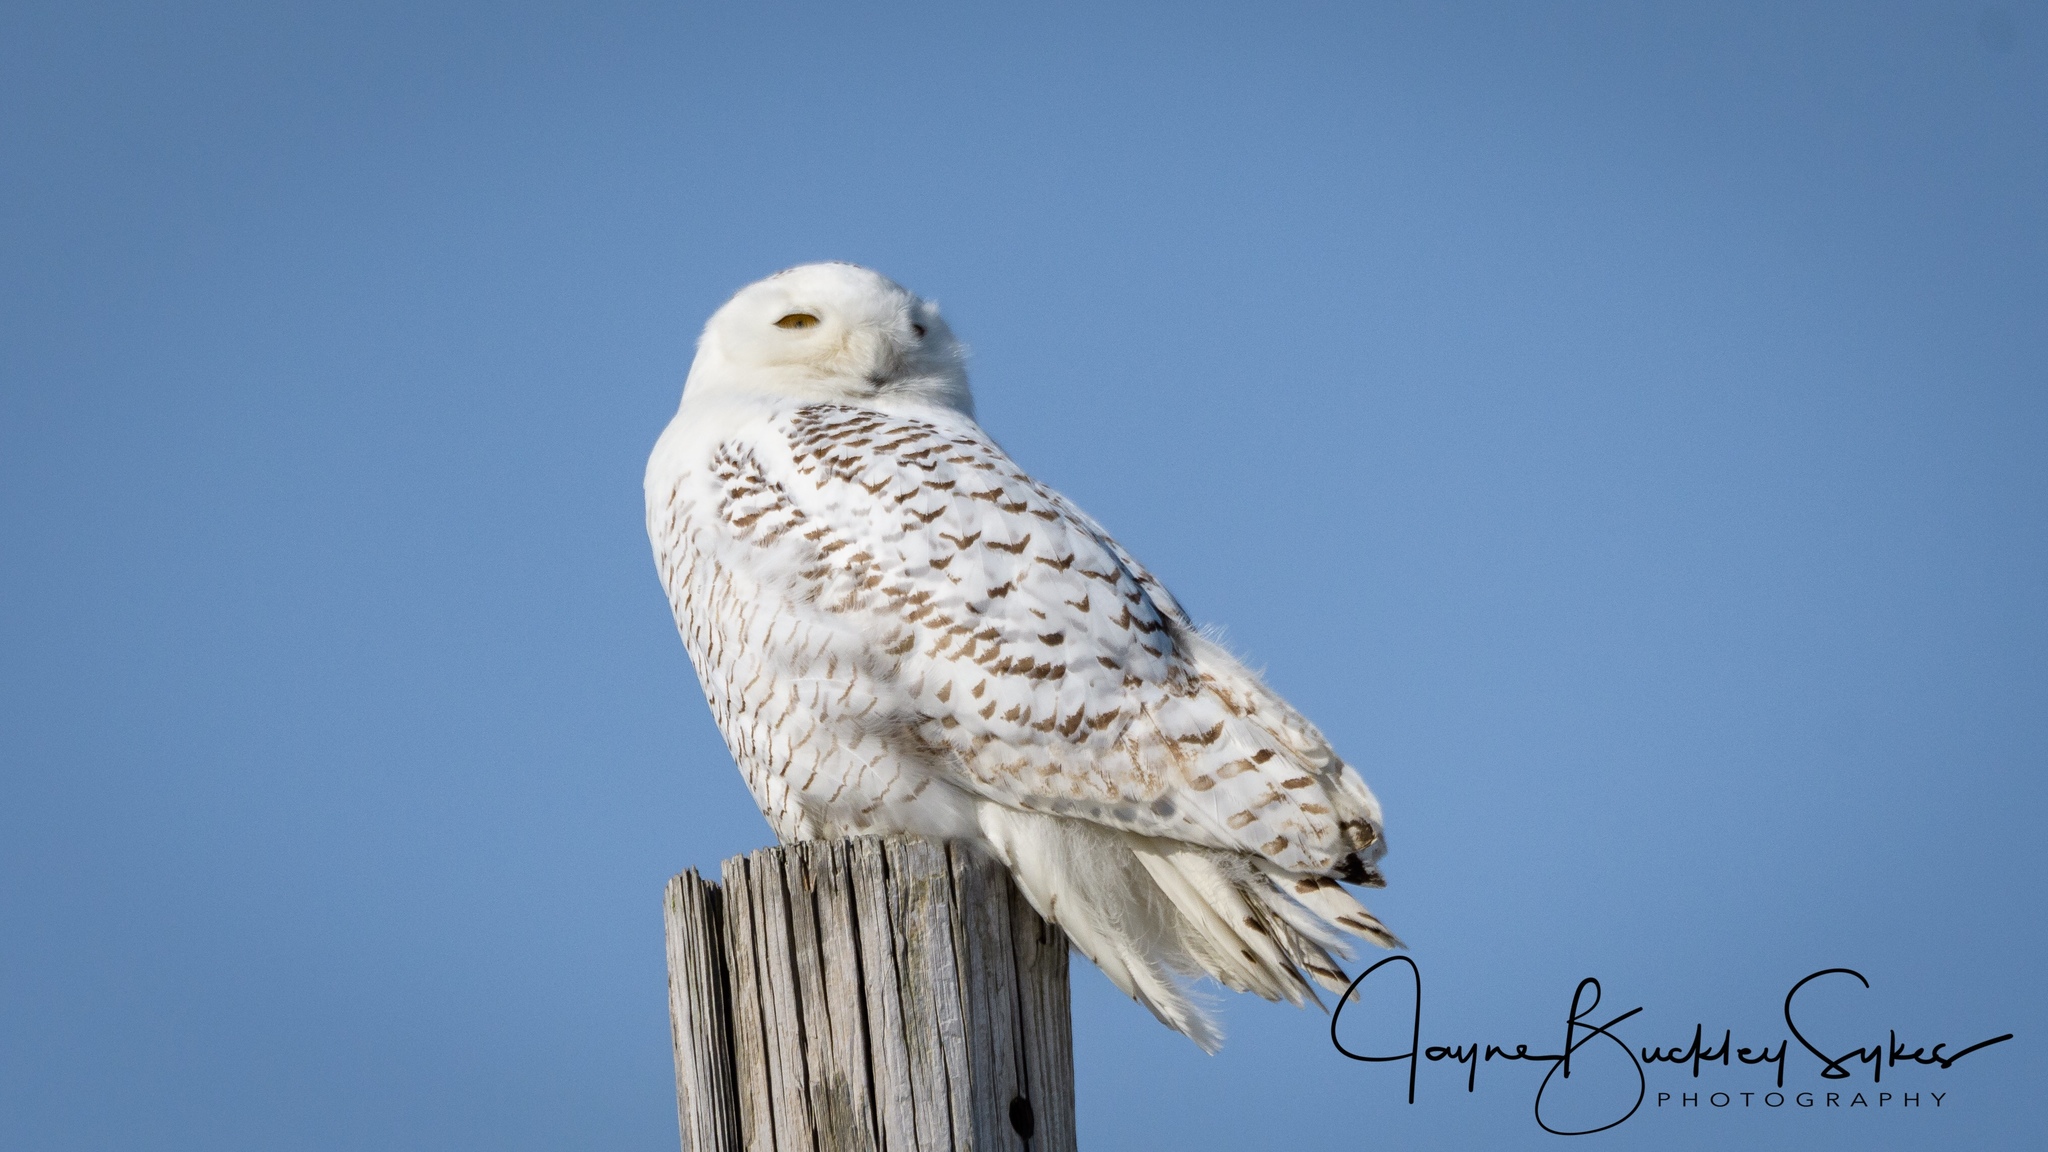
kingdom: Animalia
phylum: Chordata
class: Aves
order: Strigiformes
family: Strigidae
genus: Bubo
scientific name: Bubo scandiacus
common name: Snowy owl
